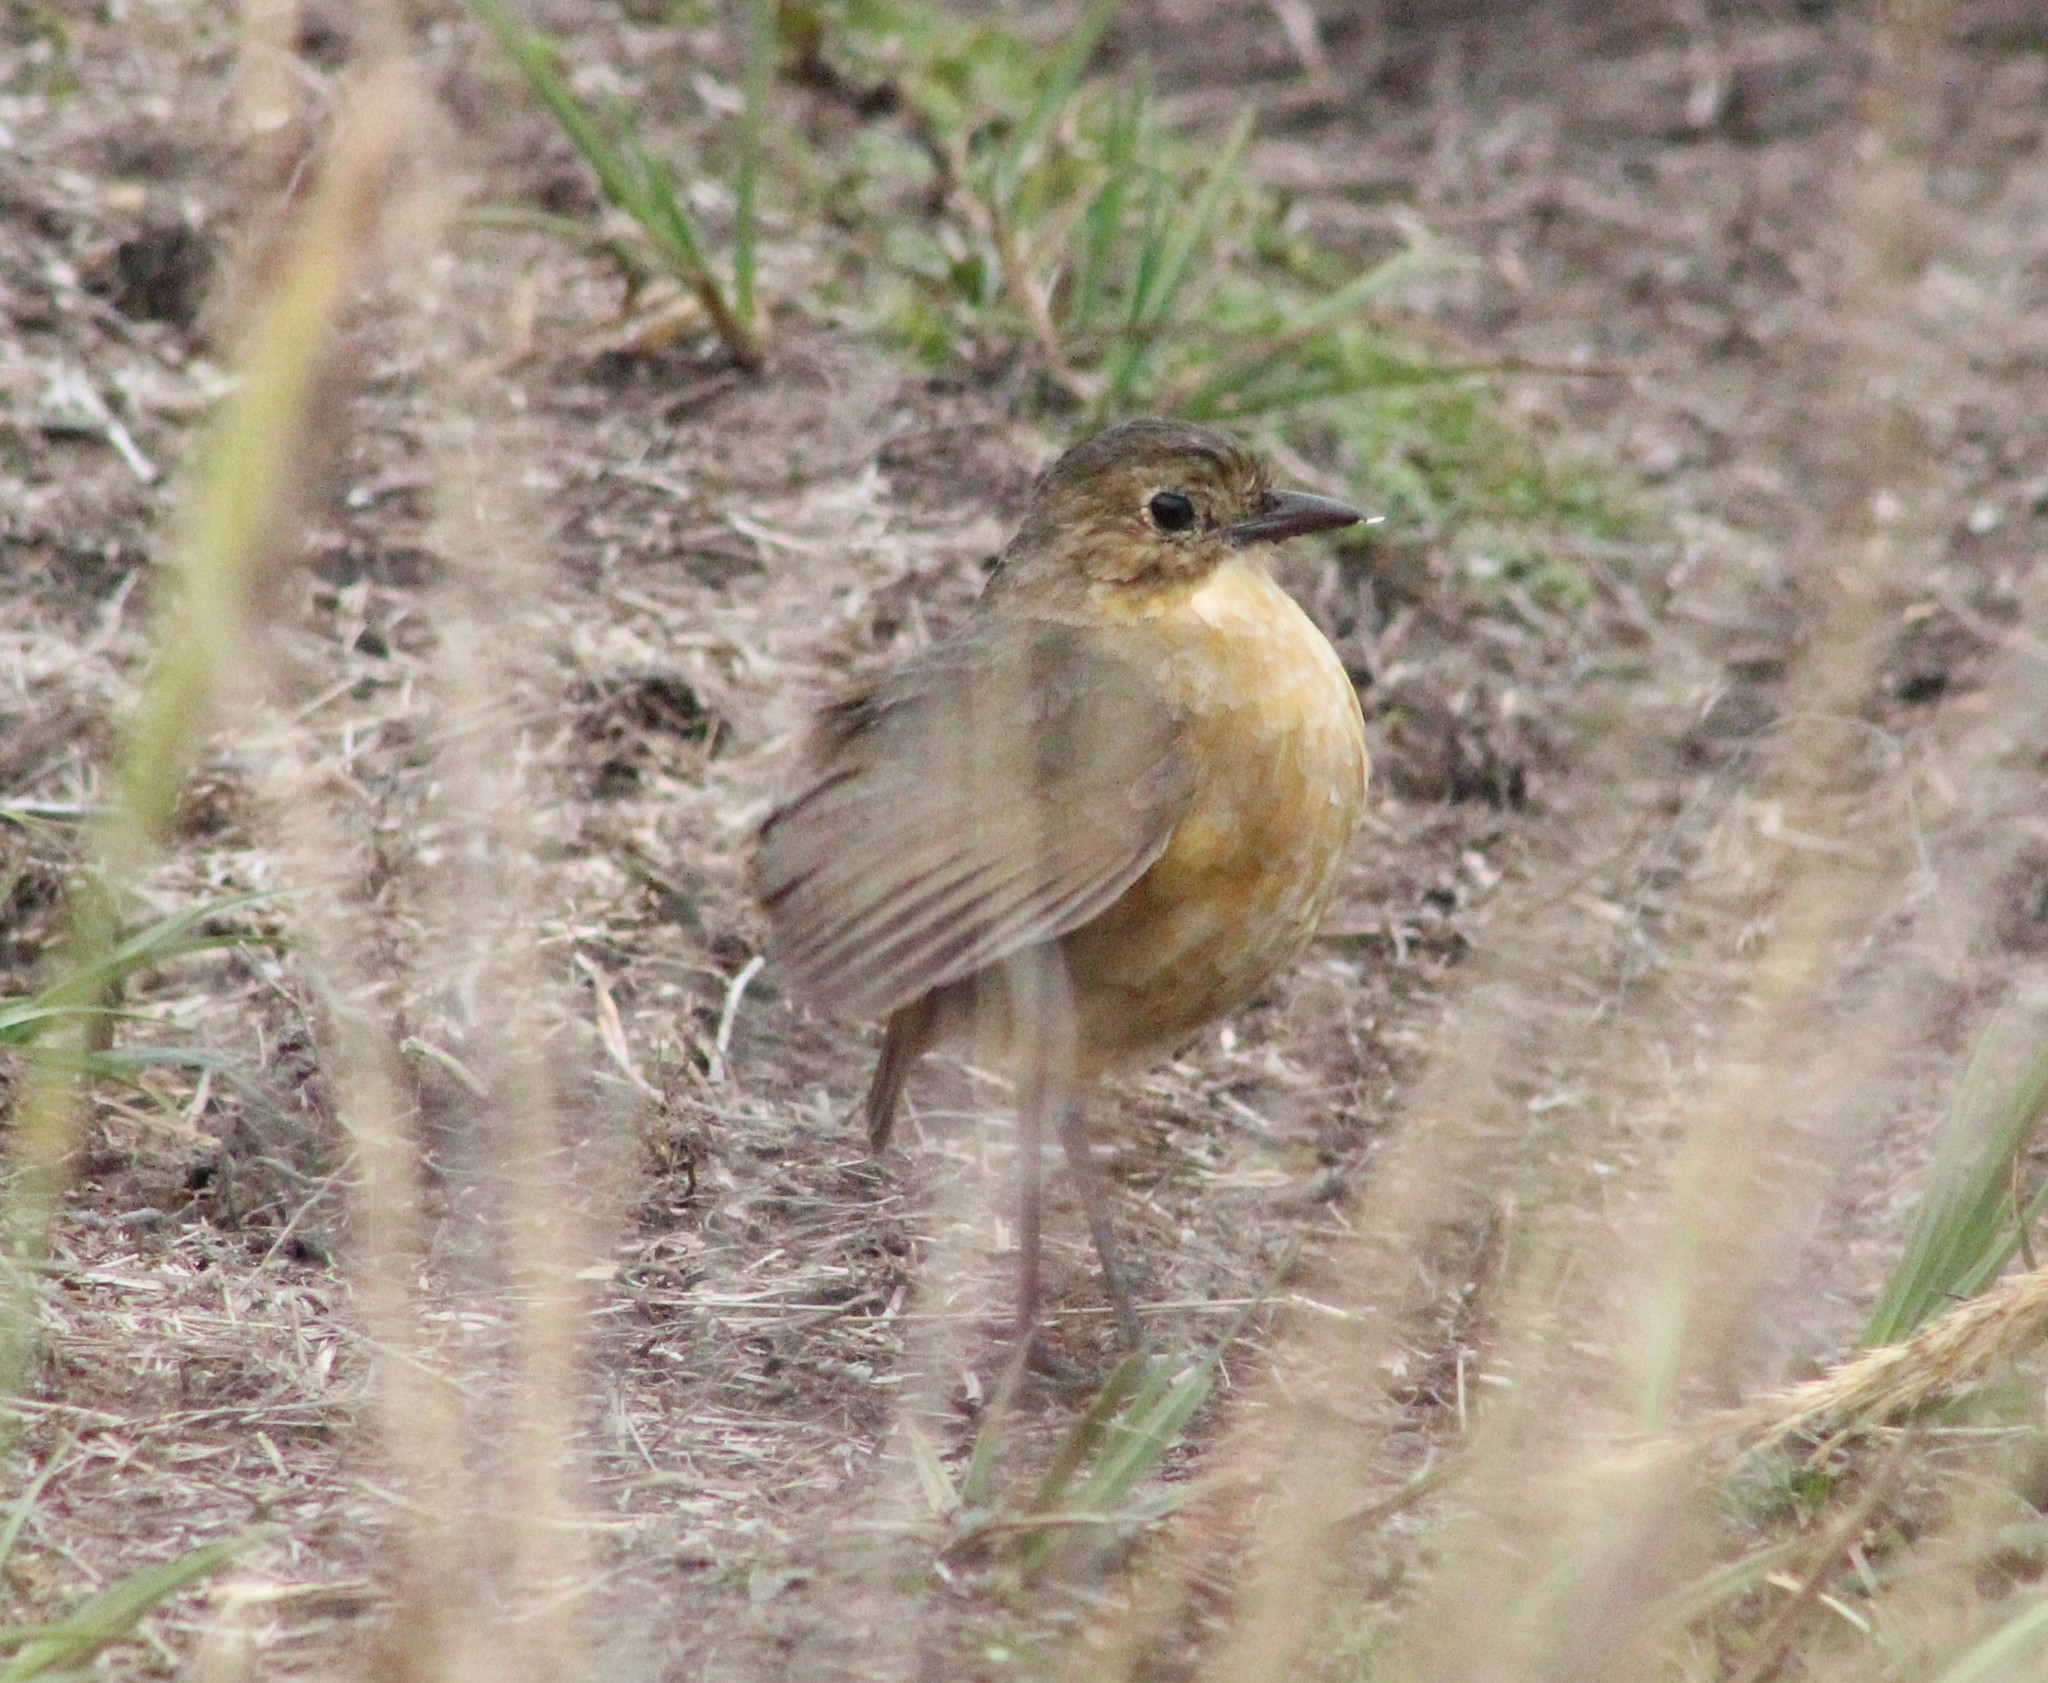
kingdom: Animalia
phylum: Chordata
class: Aves
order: Passeriformes
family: Grallariidae
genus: Grallaria
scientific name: Grallaria quitensis
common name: Tawny antpitta
